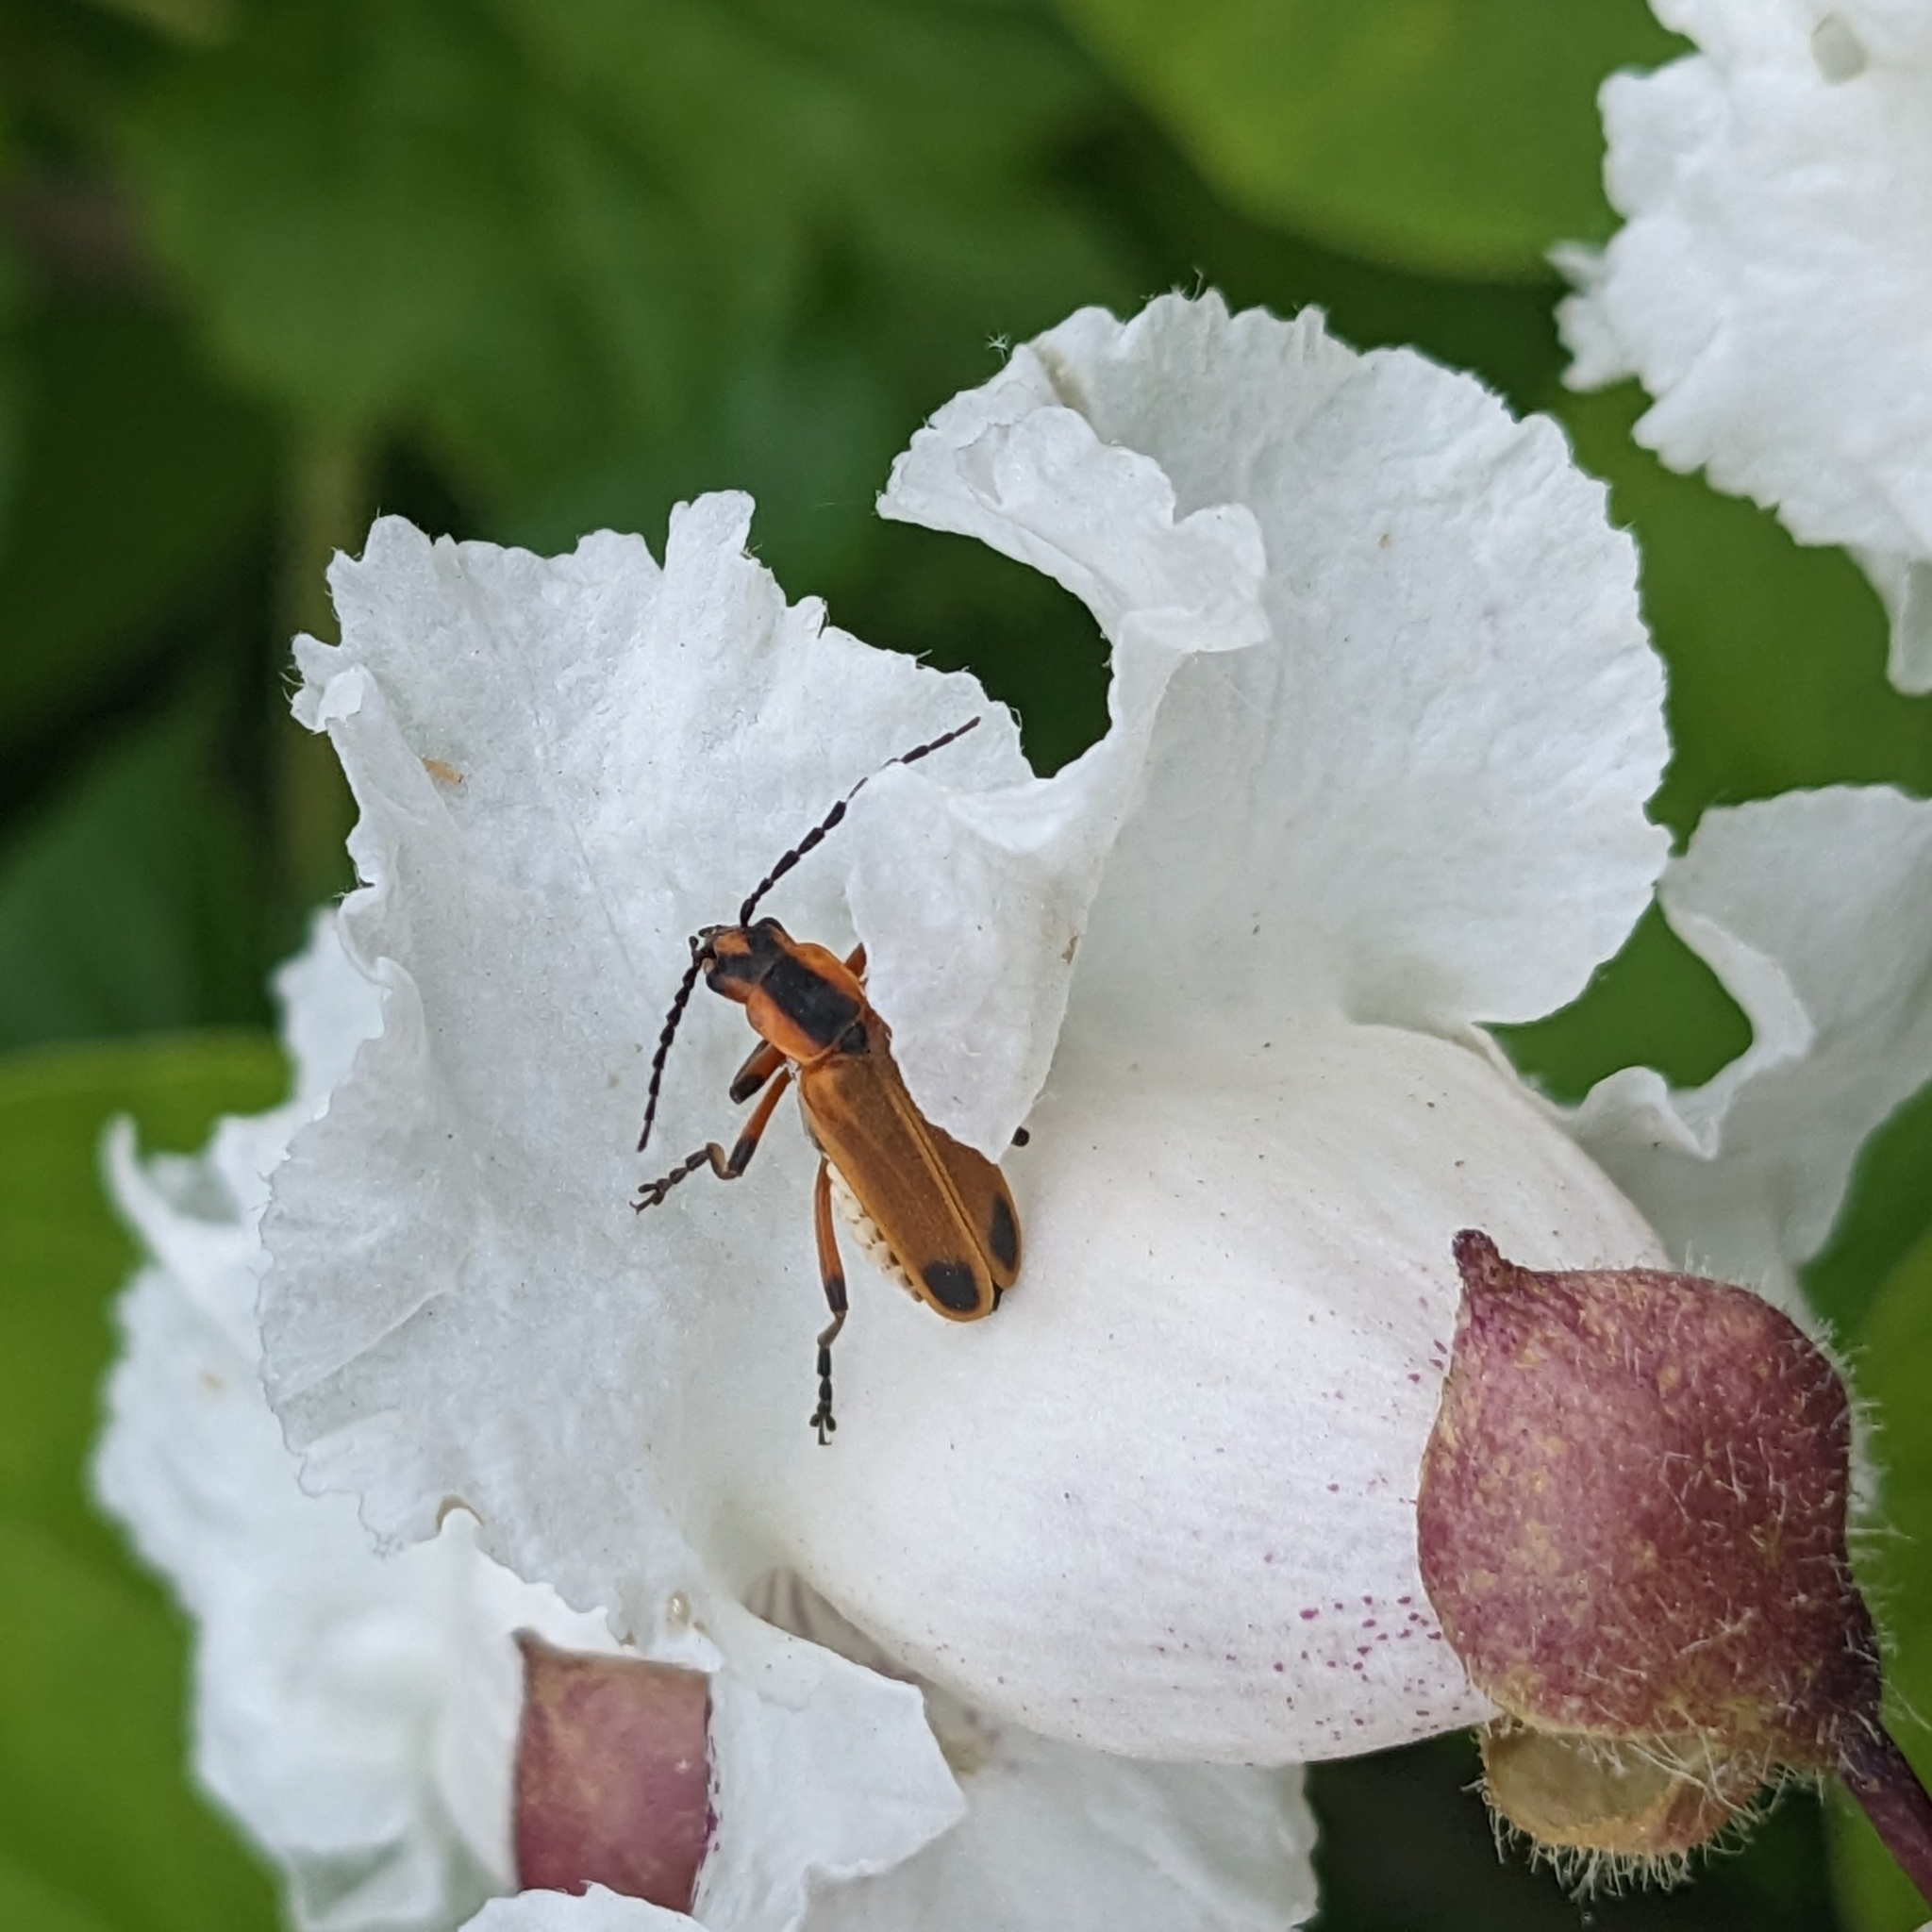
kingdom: Animalia
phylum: Arthropoda
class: Insecta
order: Coleoptera
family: Cantharidae
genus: Chauliognathus
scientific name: Chauliognathus marginatus
